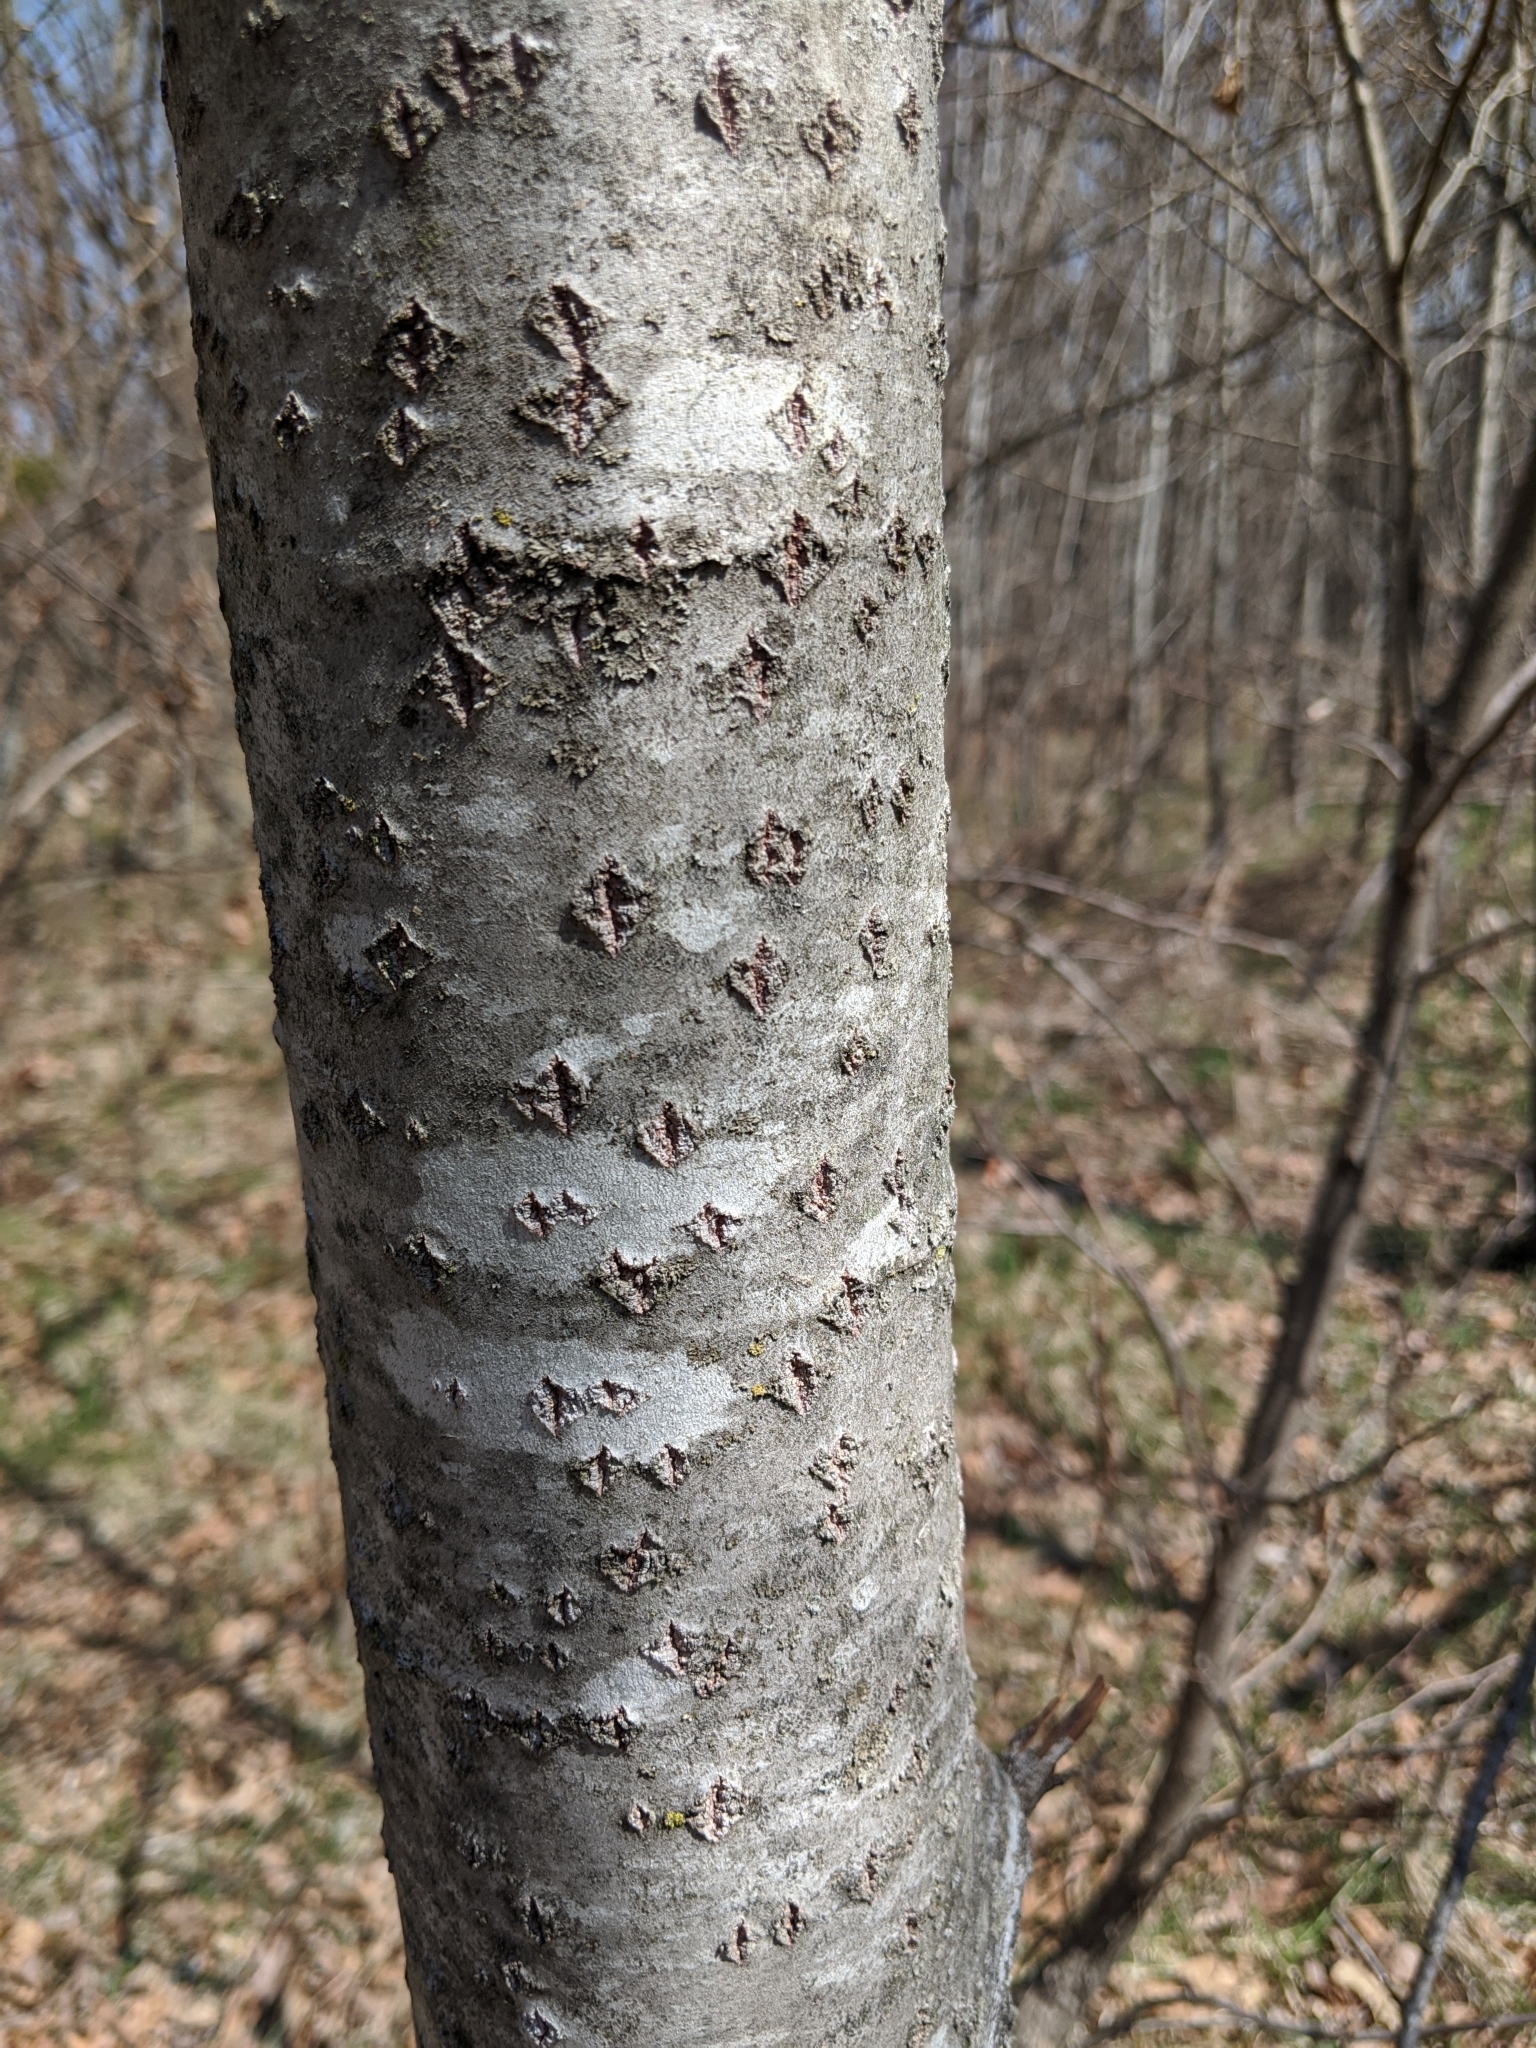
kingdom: Plantae
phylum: Tracheophyta
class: Magnoliopsida
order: Malpighiales
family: Salicaceae
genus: Populus
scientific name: Populus alba
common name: White poplar
